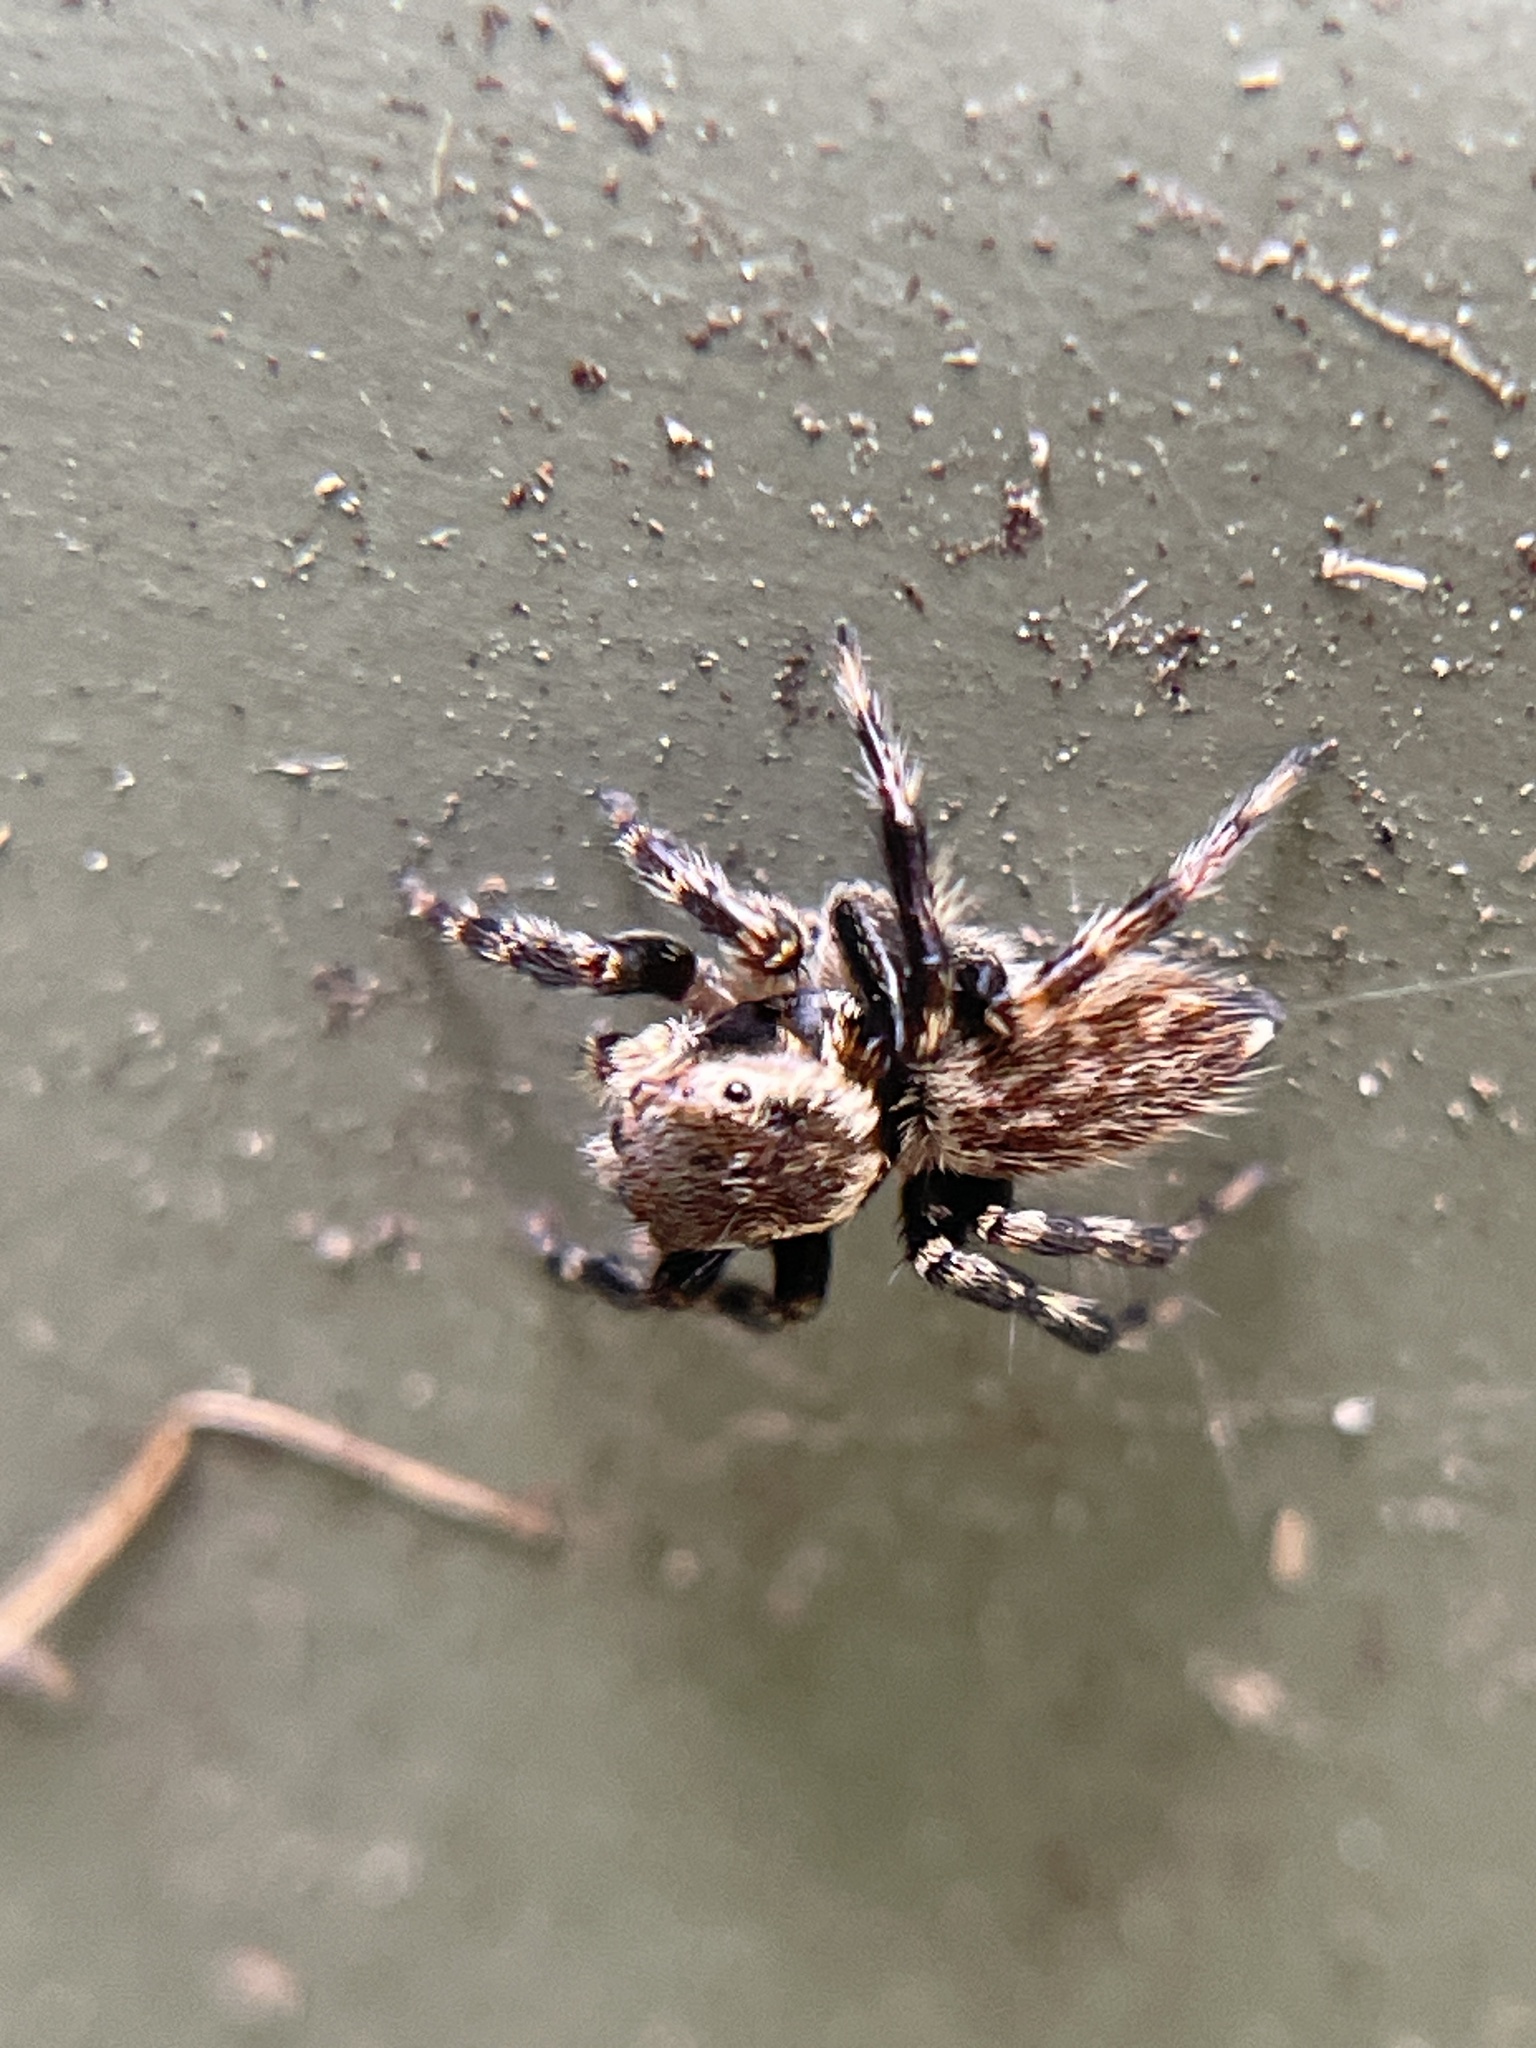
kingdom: Animalia
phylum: Arthropoda
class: Arachnida
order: Araneae
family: Salticidae
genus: Maratus
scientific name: Maratus griseus
